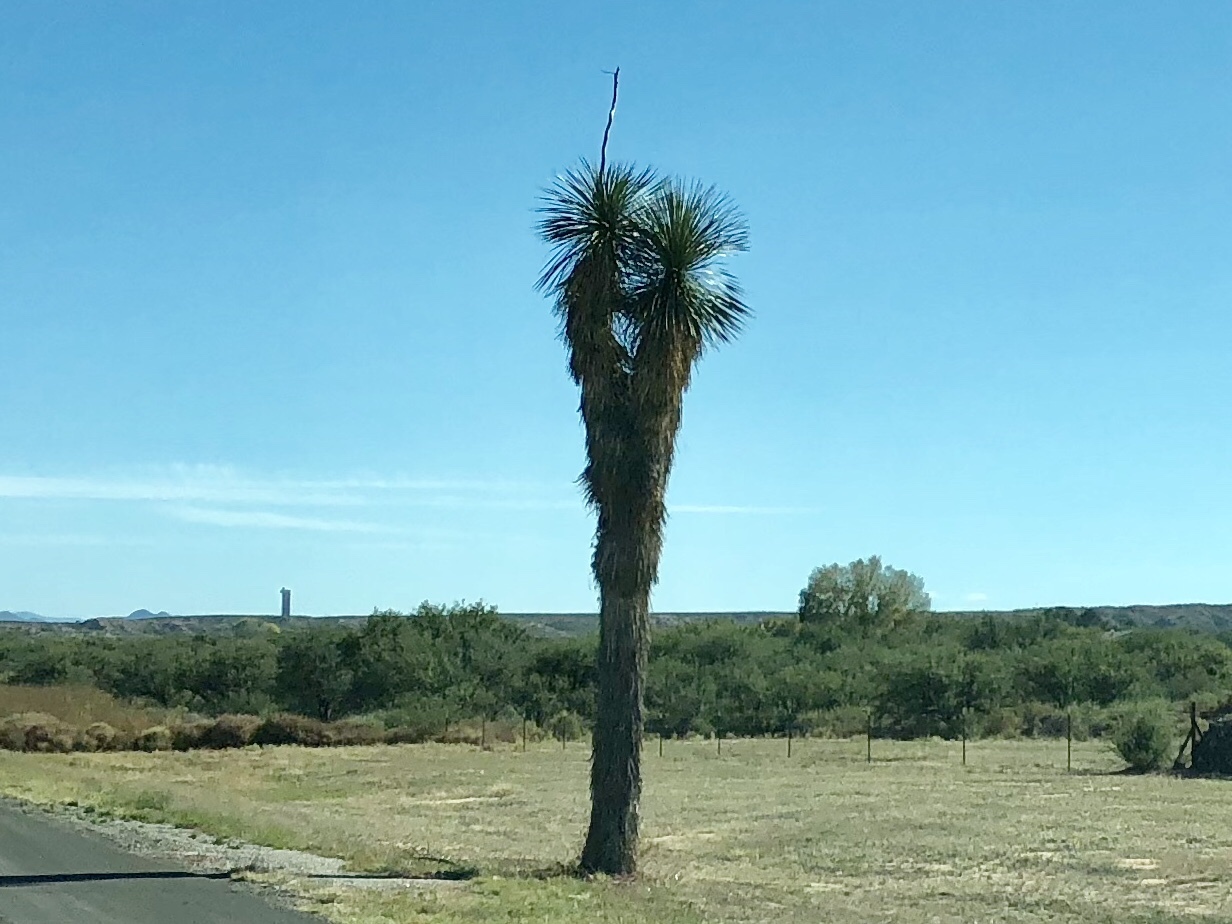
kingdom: Plantae
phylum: Tracheophyta
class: Liliopsida
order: Asparagales
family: Asparagaceae
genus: Yucca
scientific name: Yucca elata
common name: Palmella
